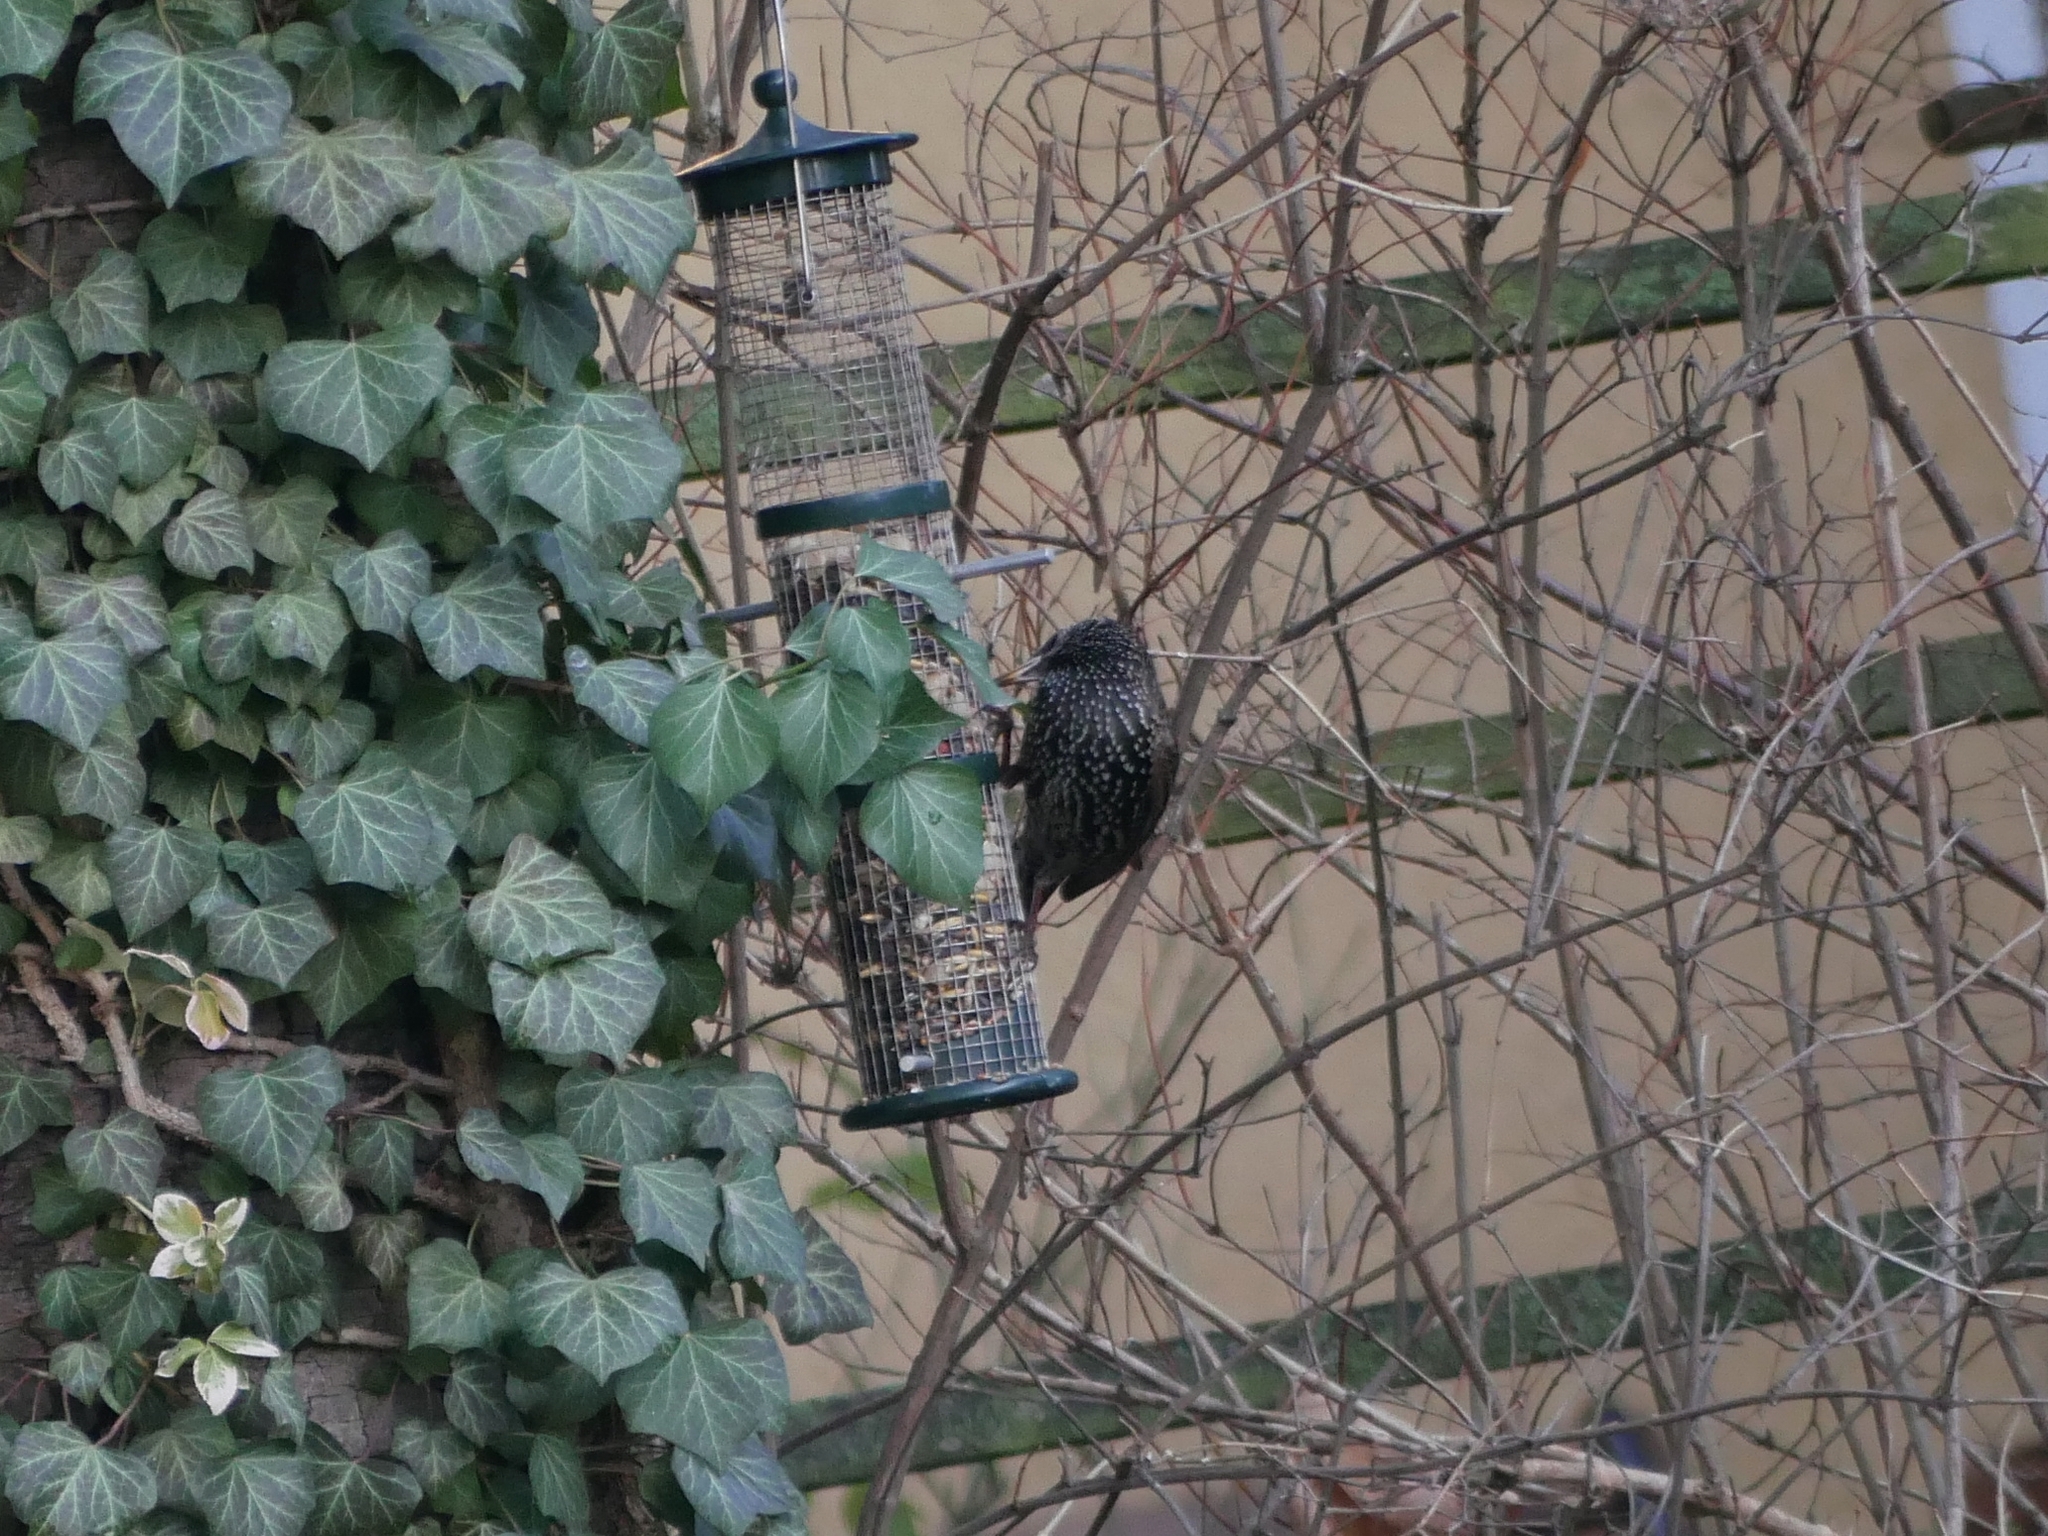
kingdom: Animalia
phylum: Chordata
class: Aves
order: Passeriformes
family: Sturnidae
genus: Sturnus
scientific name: Sturnus vulgaris
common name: Common starling
